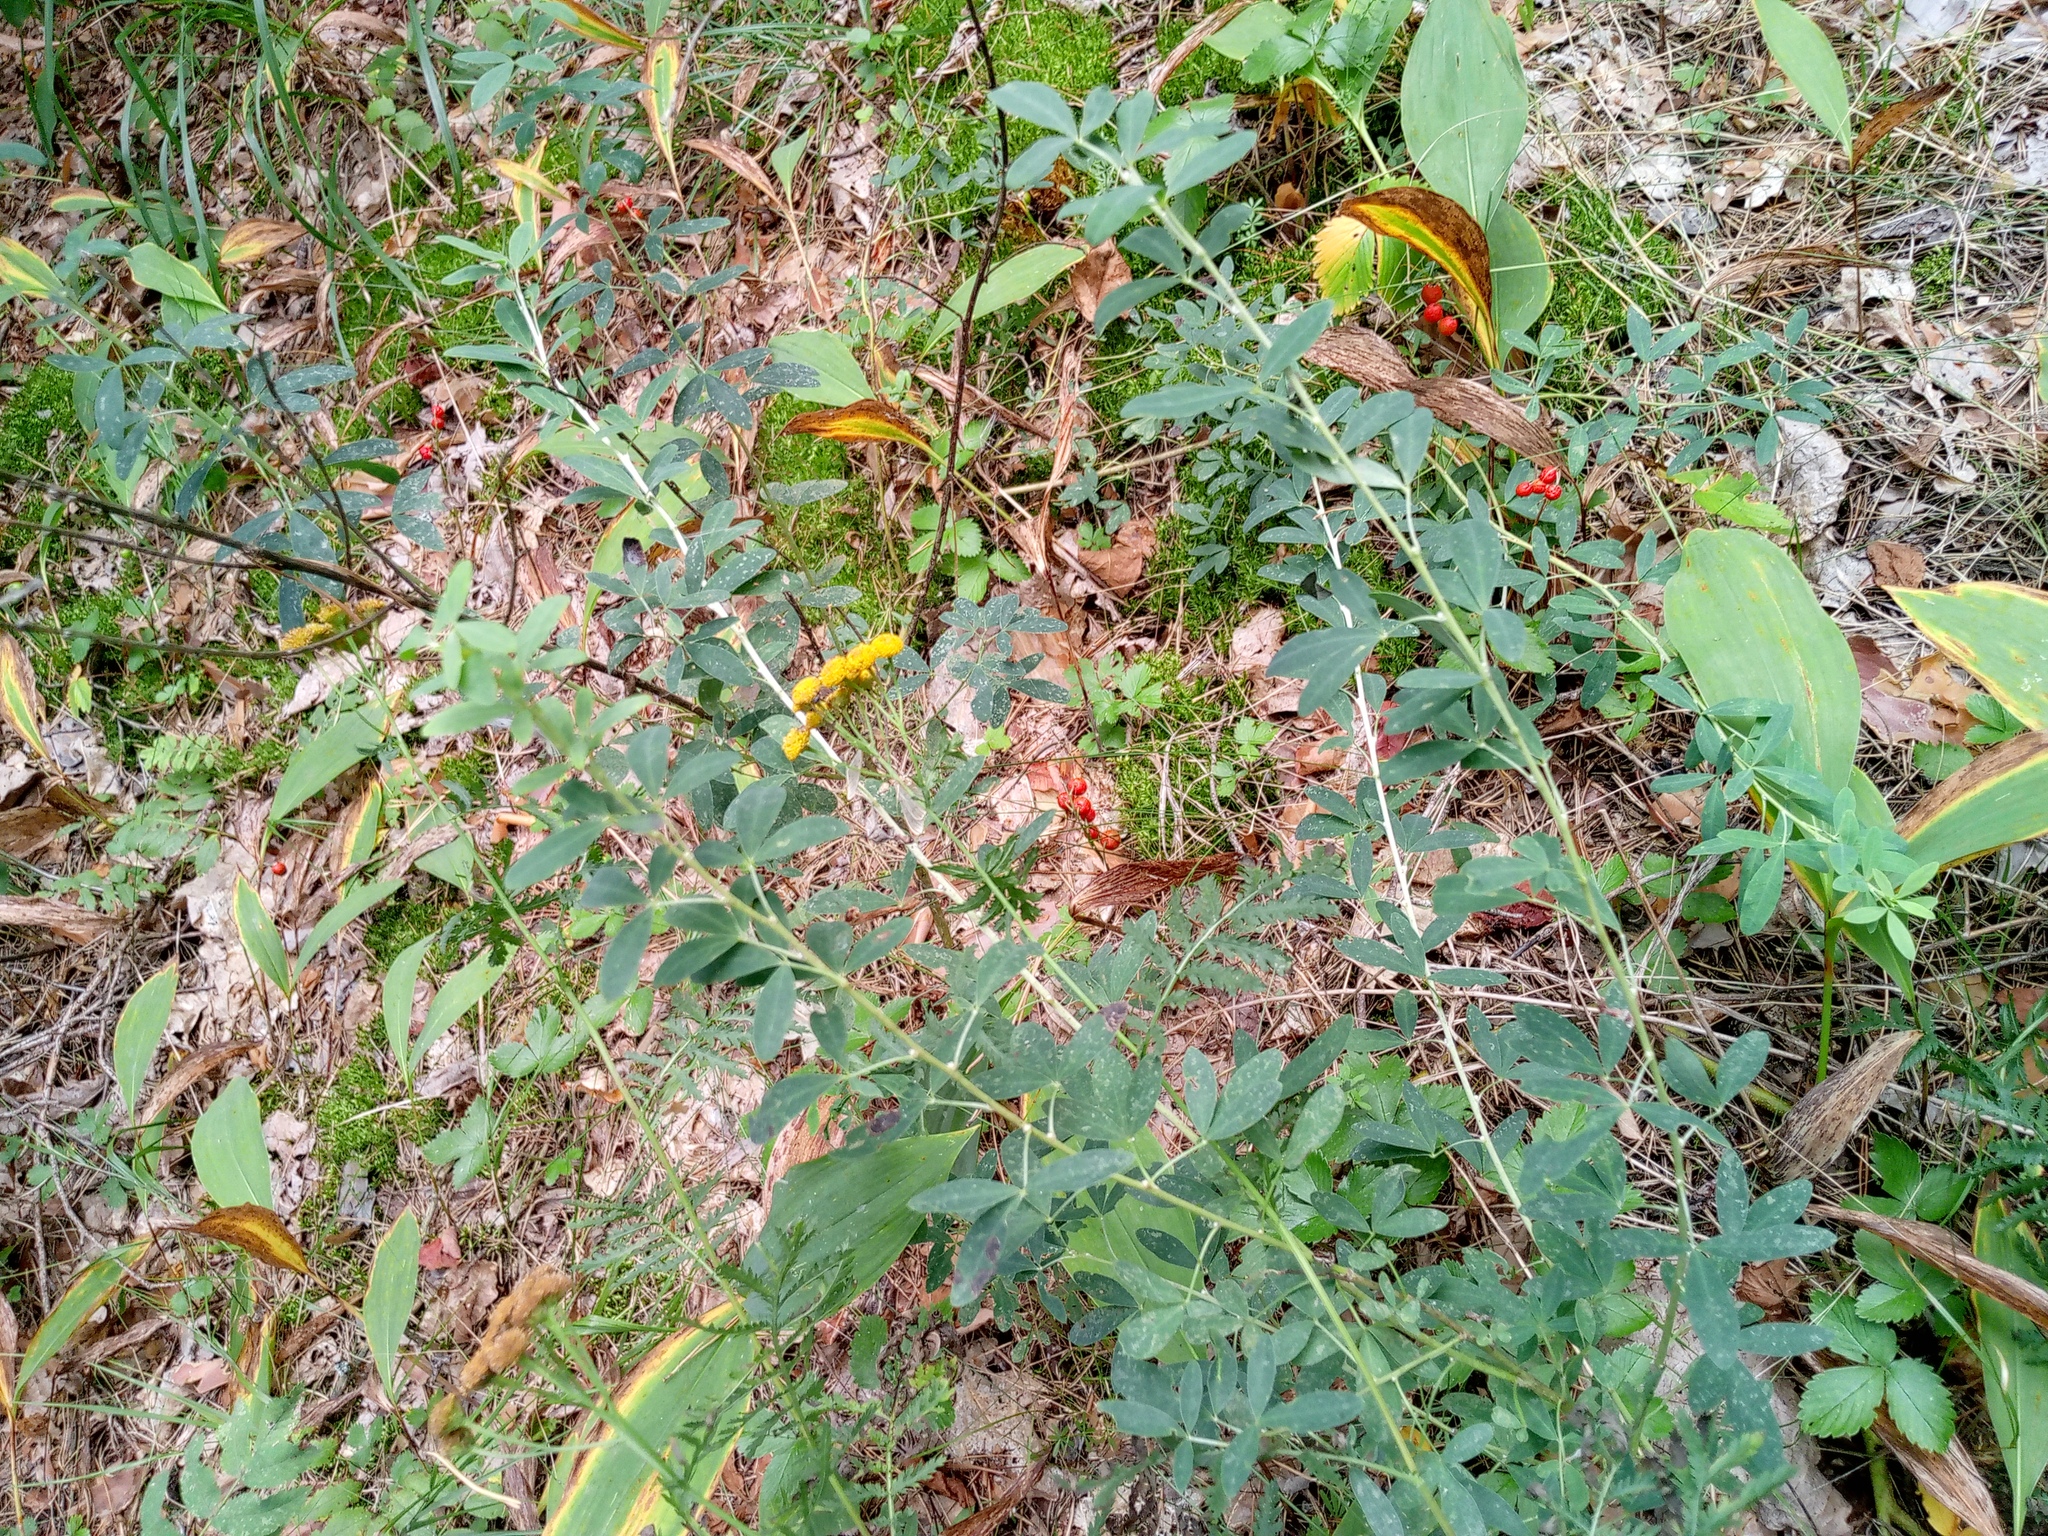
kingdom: Plantae
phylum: Tracheophyta
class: Magnoliopsida
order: Fabales
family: Fabaceae
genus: Chamaecytisus
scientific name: Chamaecytisus ruthenicus
